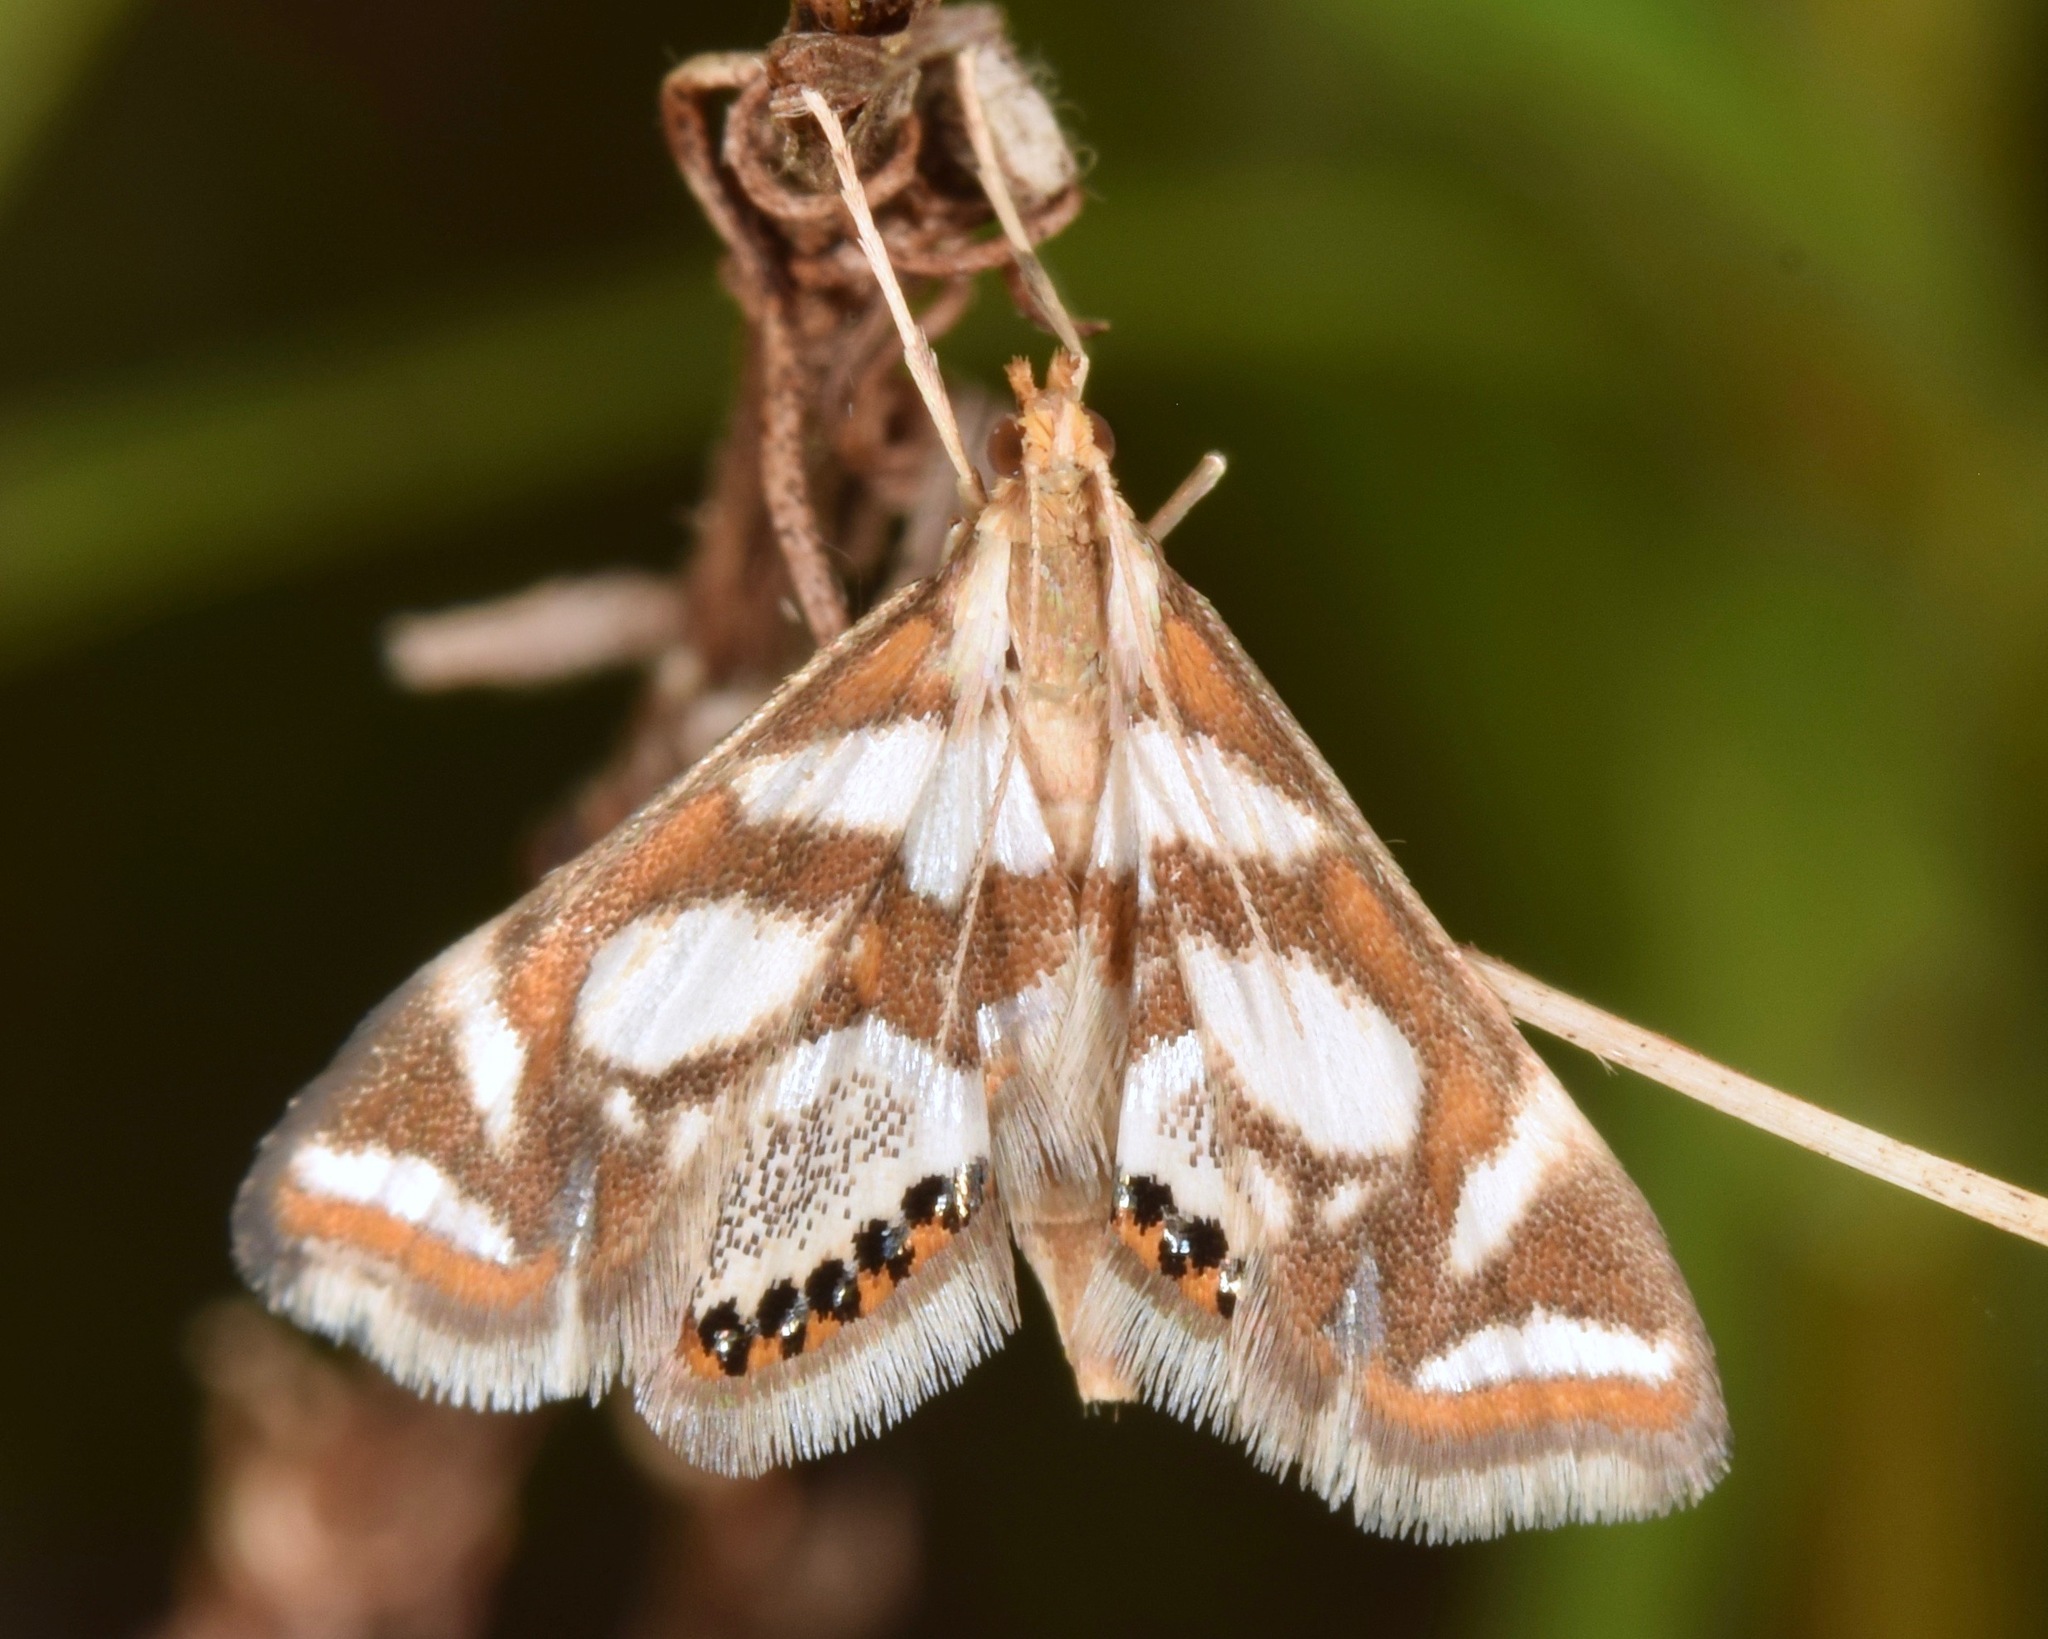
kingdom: Animalia
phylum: Arthropoda
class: Insecta
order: Lepidoptera
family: Crambidae
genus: Chrysendeton
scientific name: Chrysendeton medicinalis
